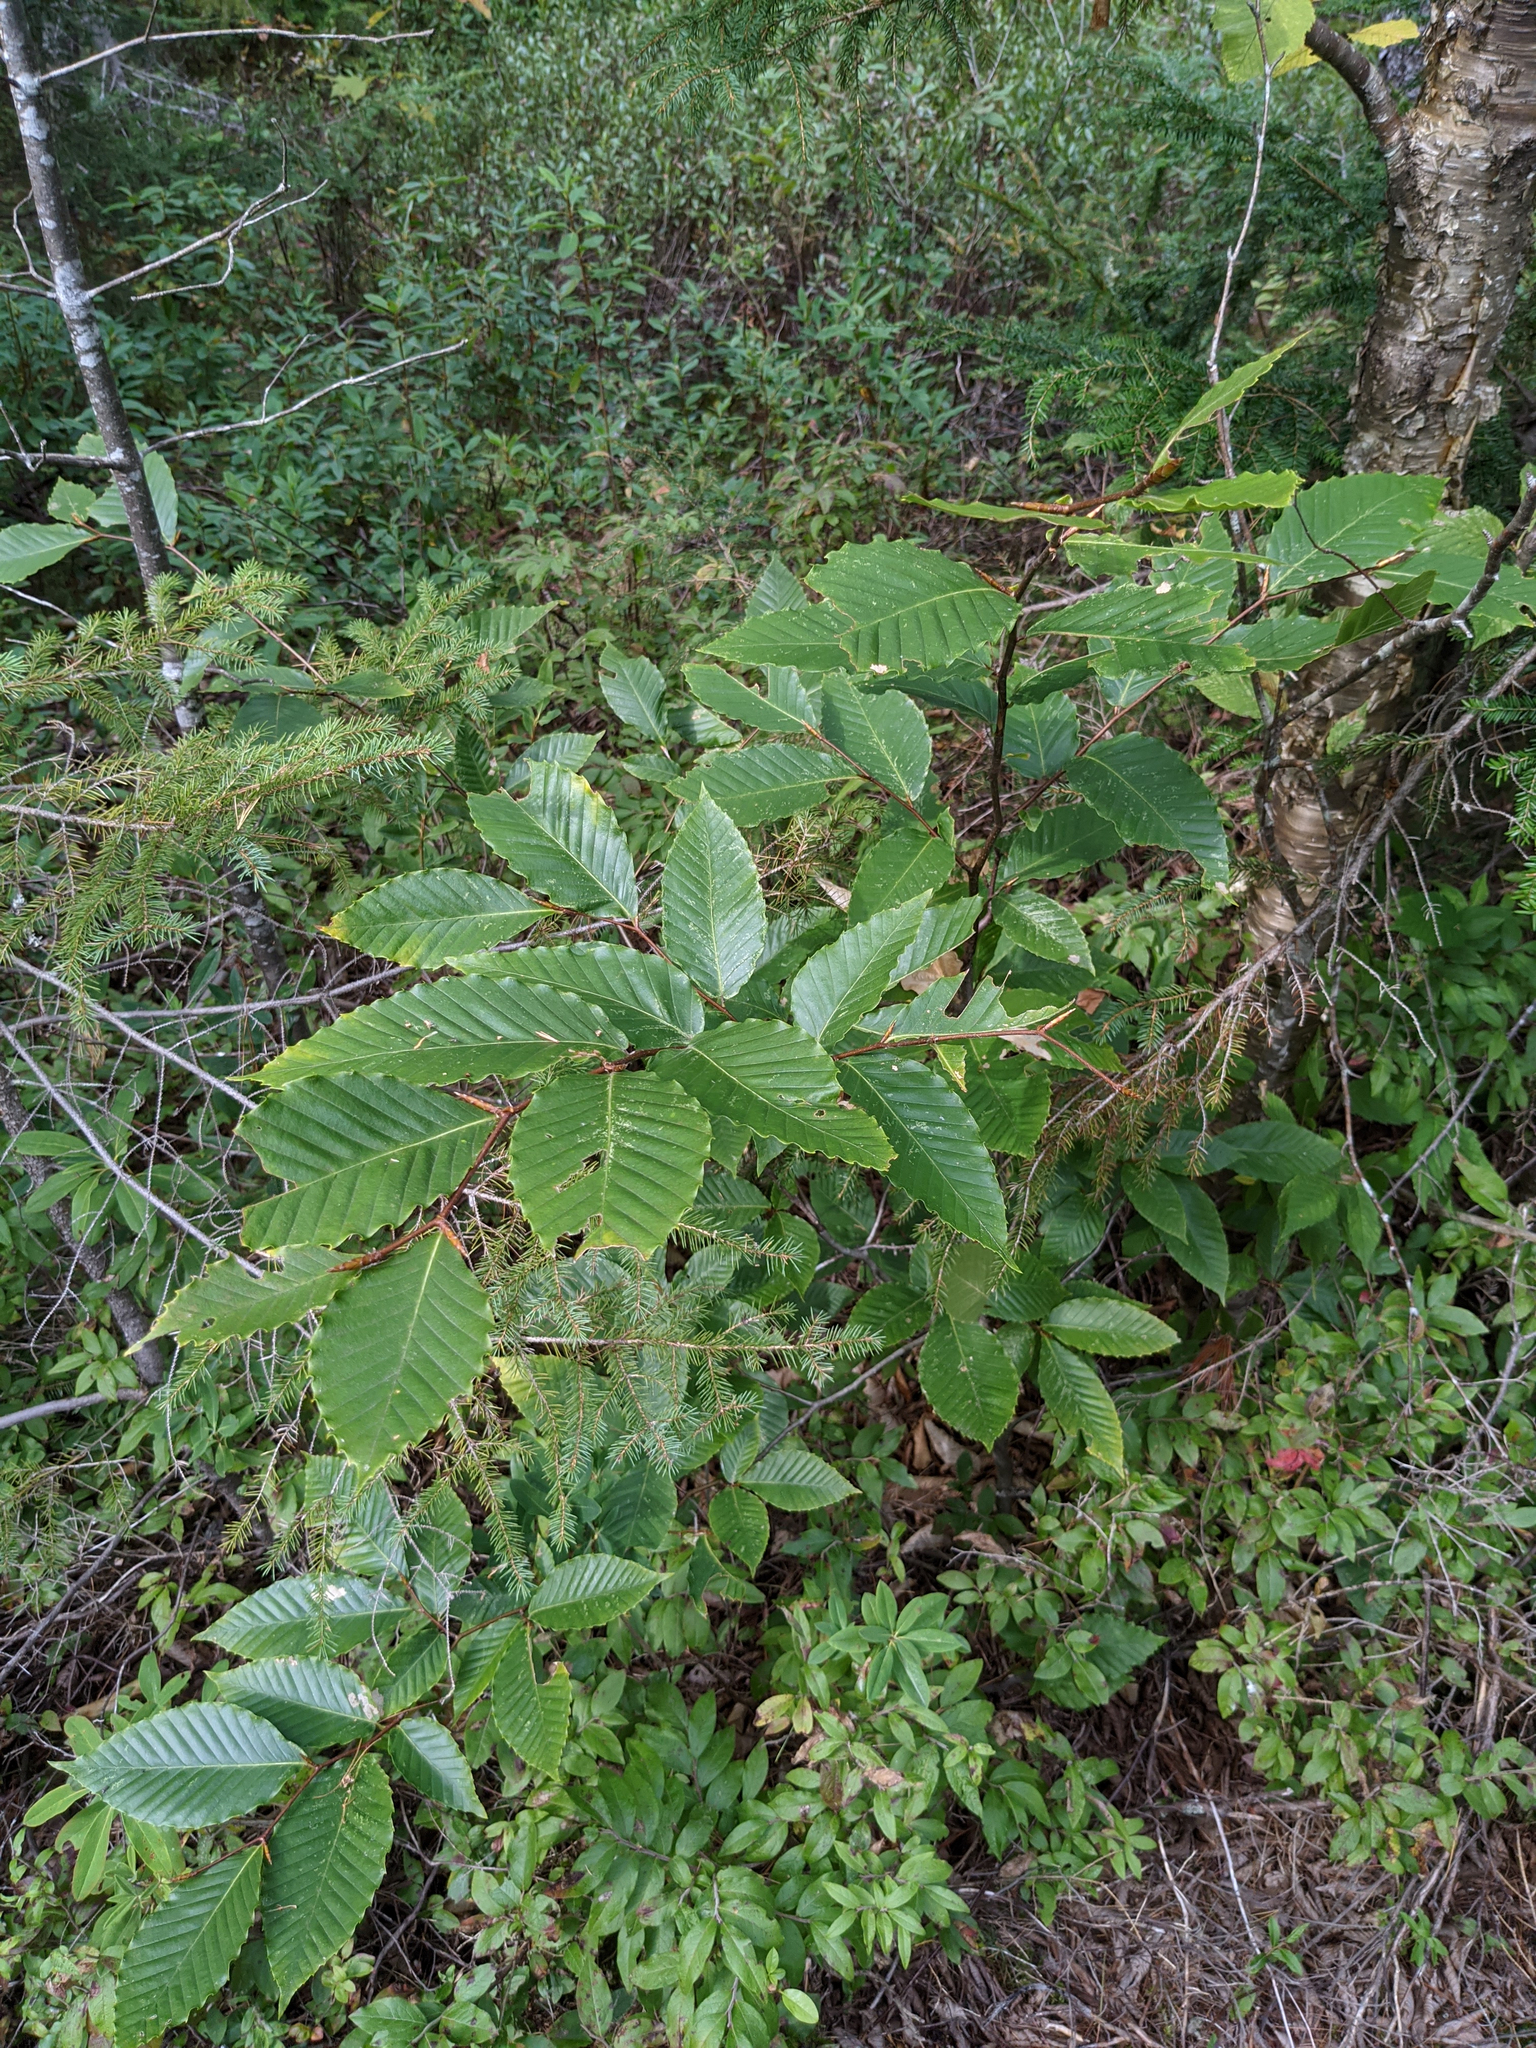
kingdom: Plantae
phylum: Tracheophyta
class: Magnoliopsida
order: Fagales
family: Fagaceae
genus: Fagus
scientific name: Fagus grandifolia
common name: American beech
